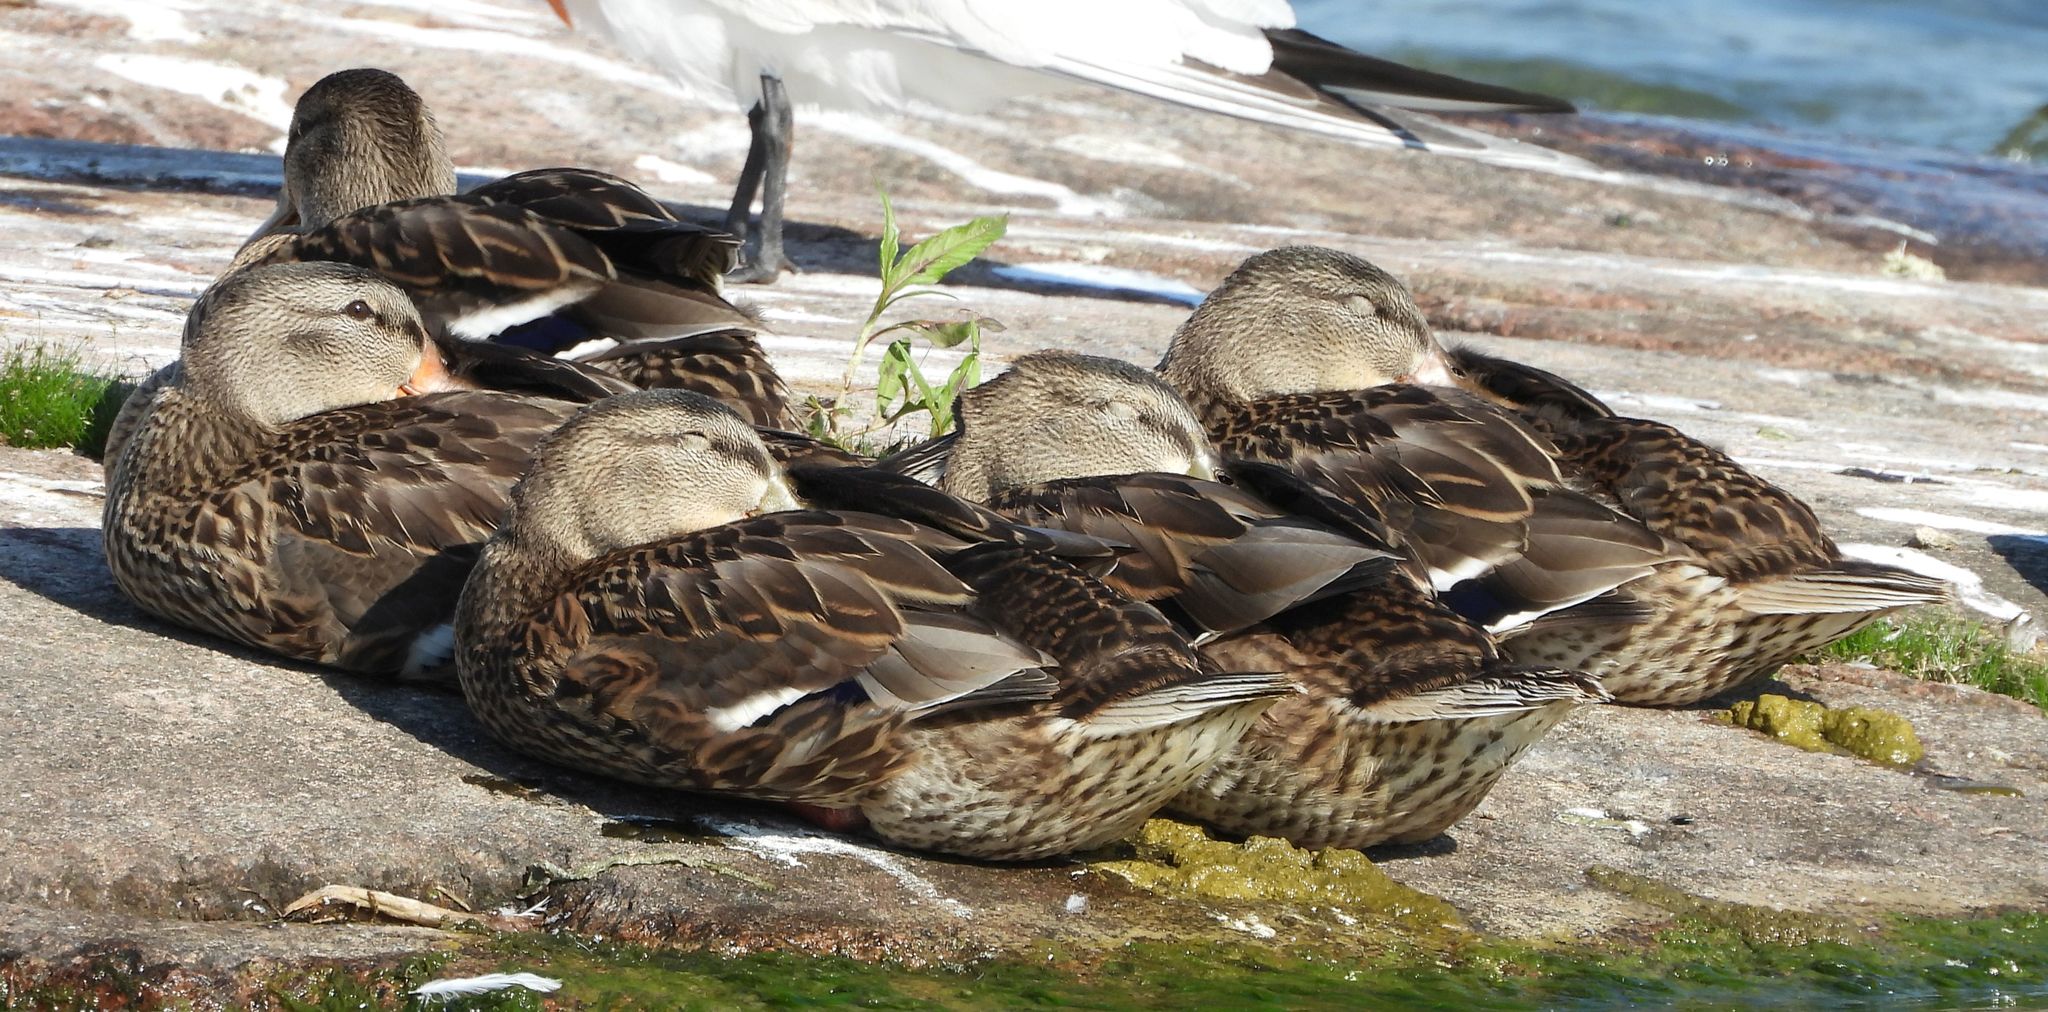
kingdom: Animalia
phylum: Chordata
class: Aves
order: Anseriformes
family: Anatidae
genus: Anas
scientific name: Anas platyrhynchos
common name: Mallard
